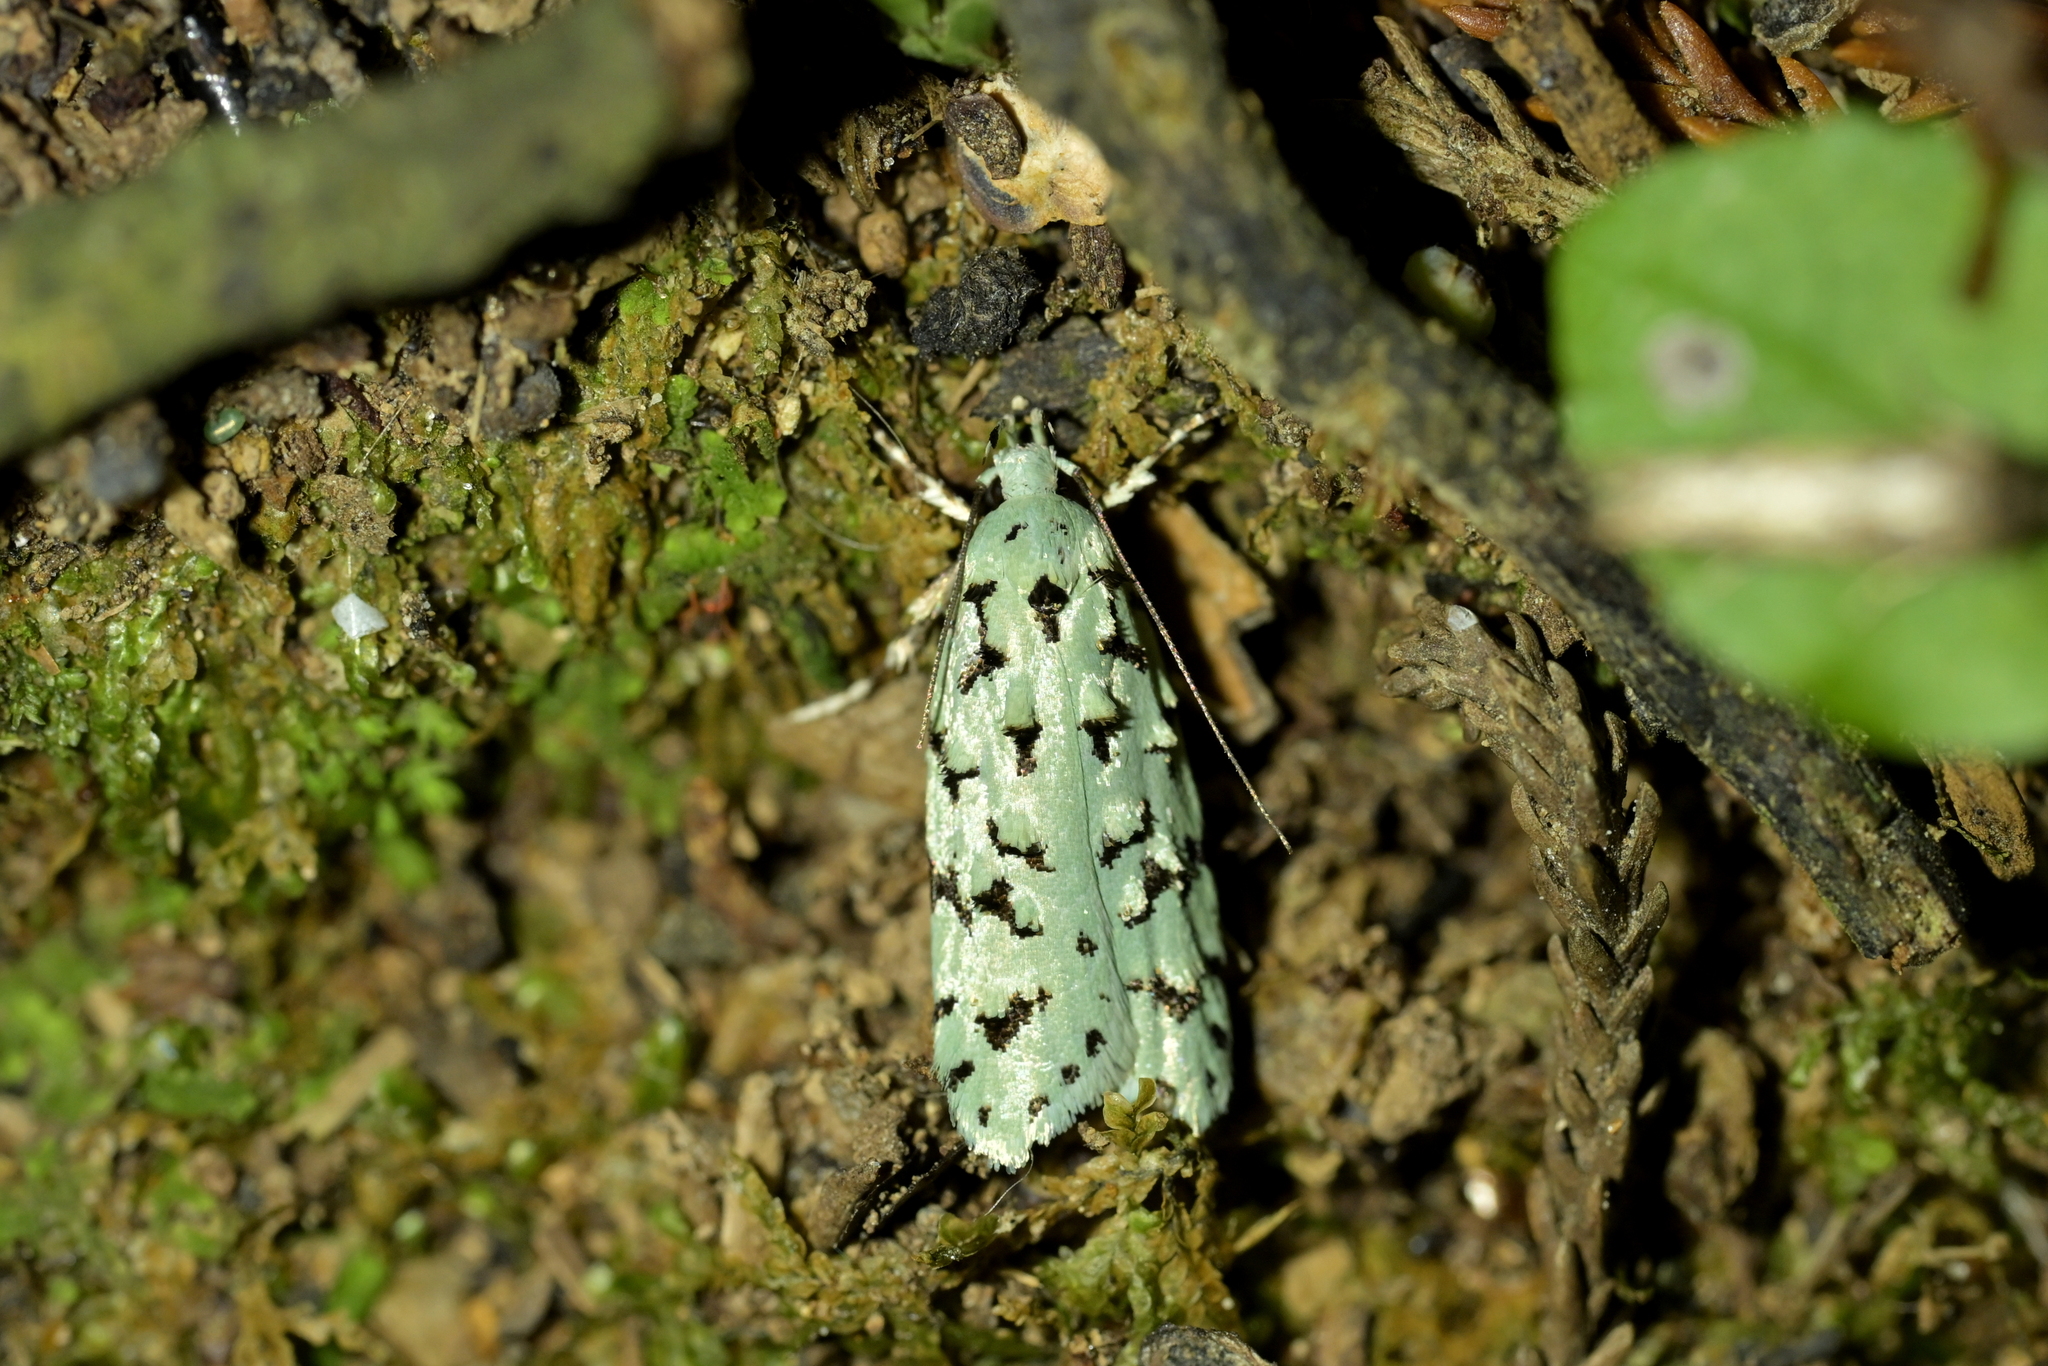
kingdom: Animalia
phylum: Arthropoda
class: Insecta
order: Lepidoptera
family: Oecophoridae
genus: Izatha
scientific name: Izatha peroneanella
